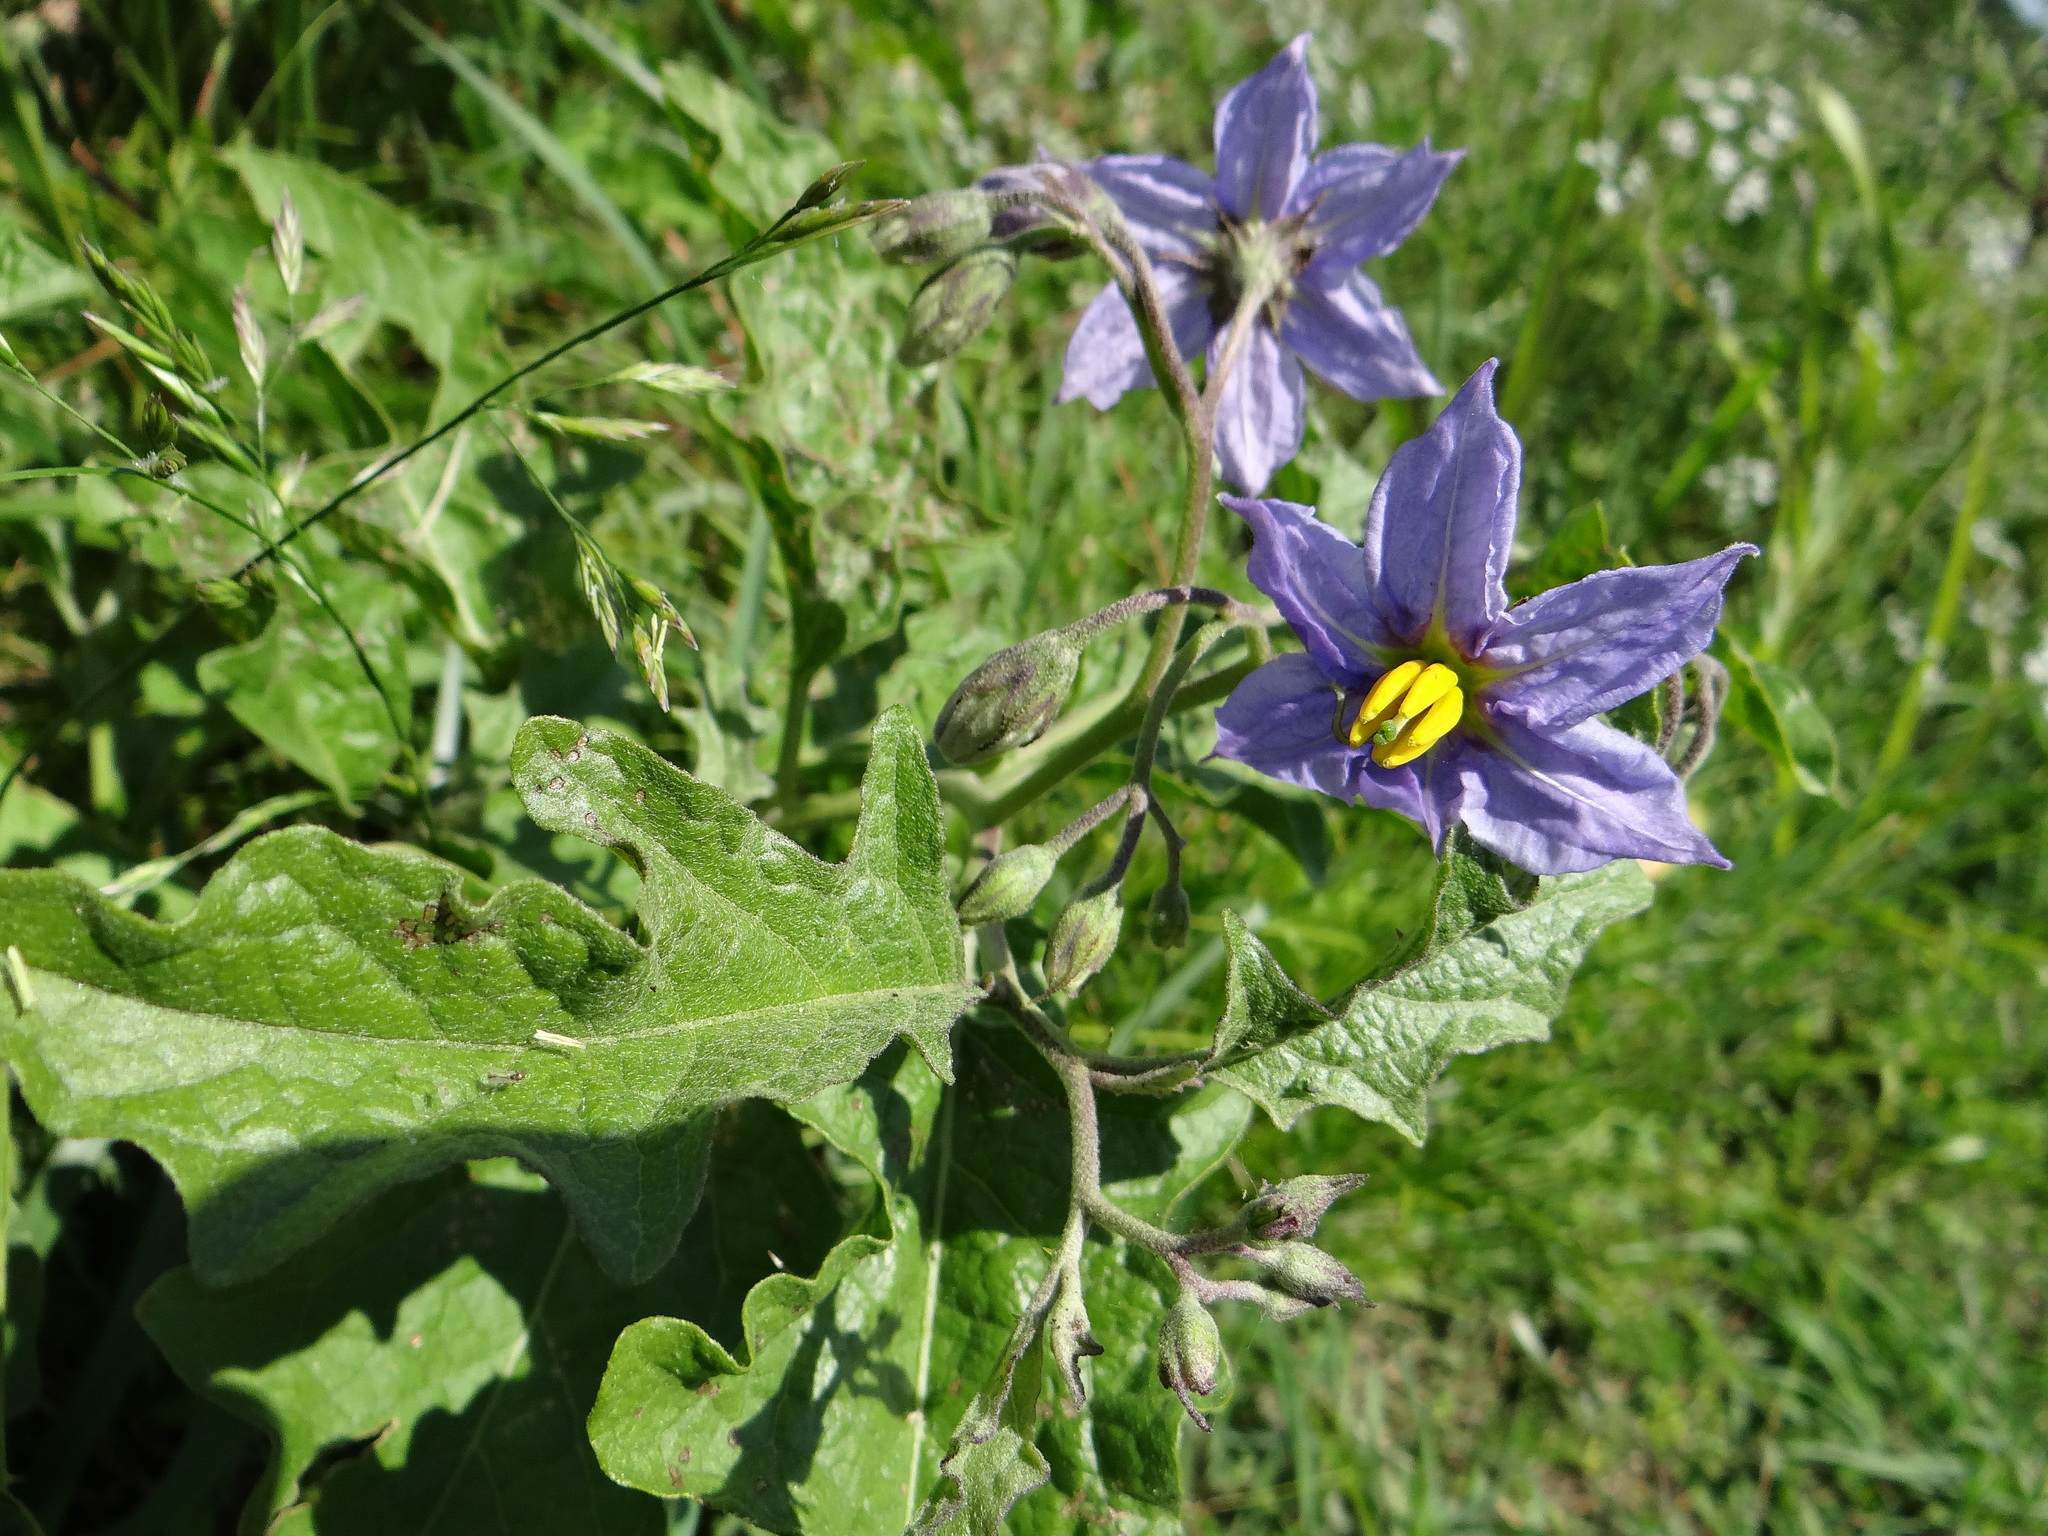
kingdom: Plantae
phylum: Tracheophyta
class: Magnoliopsida
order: Solanales
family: Solanaceae
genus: Solanum
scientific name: Solanum dimidiatum
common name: Carolina horse-nettle
